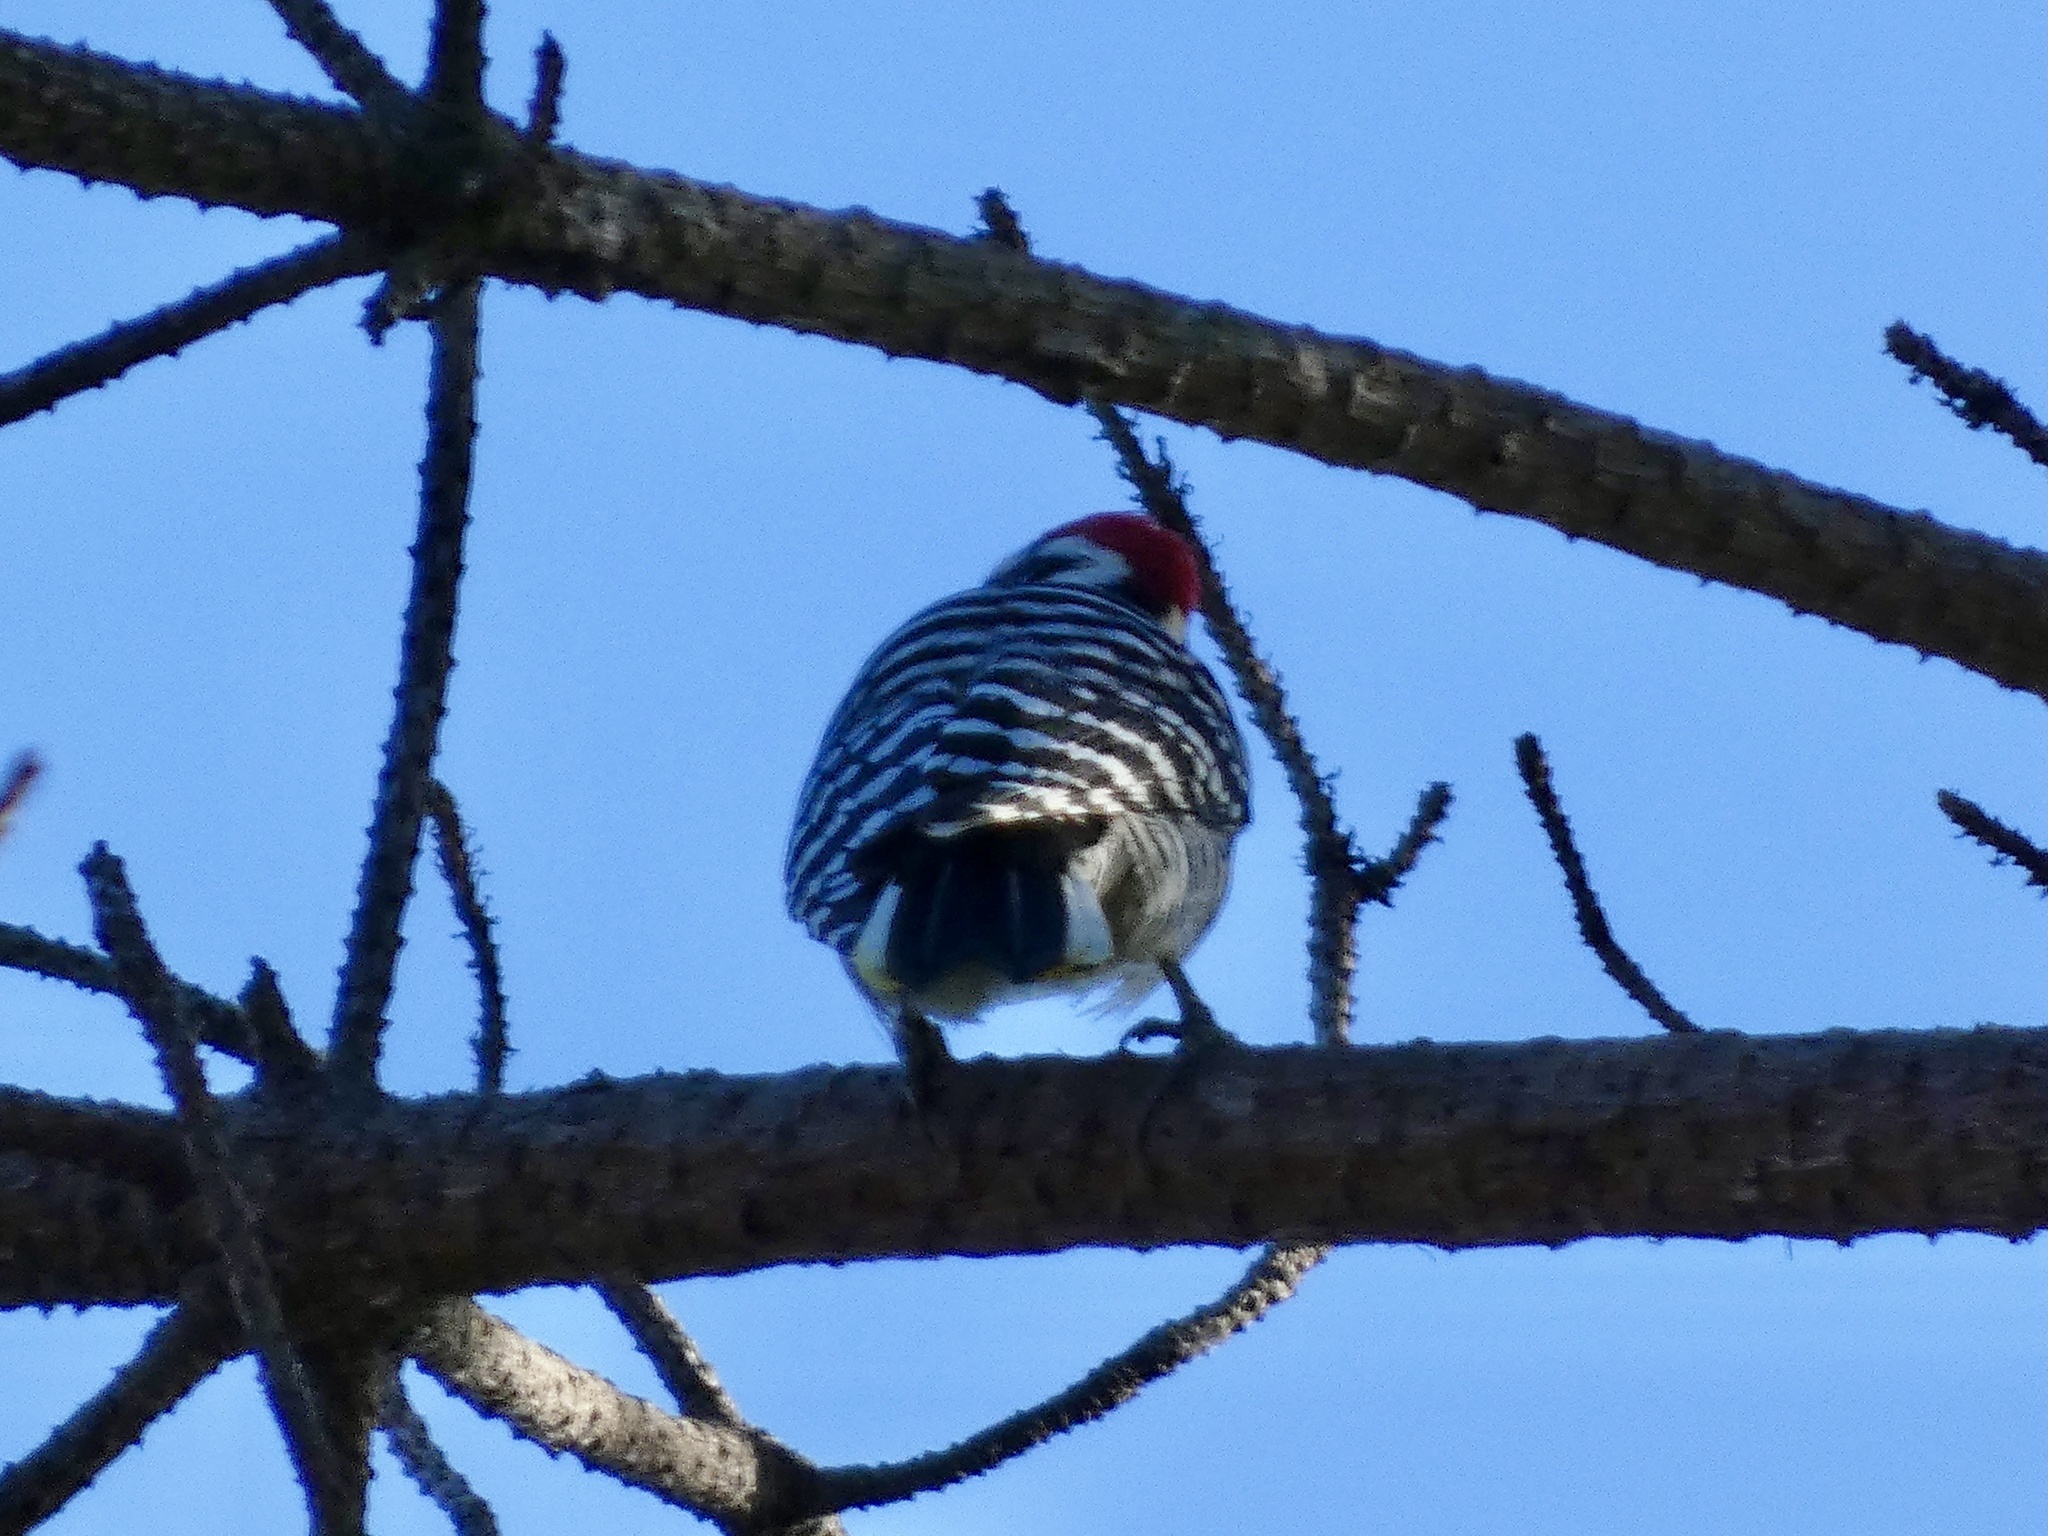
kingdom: Animalia
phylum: Chordata
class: Aves
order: Piciformes
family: Picidae
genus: Dryobates
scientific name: Dryobates nuttallii
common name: Nuttall's woodpecker
